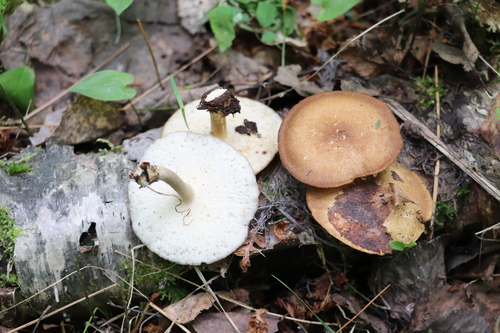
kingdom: Fungi
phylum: Basidiomycota
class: Agaricomycetes
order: Polyporales
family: Polyporaceae
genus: Lentinus
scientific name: Lentinus substrictus
